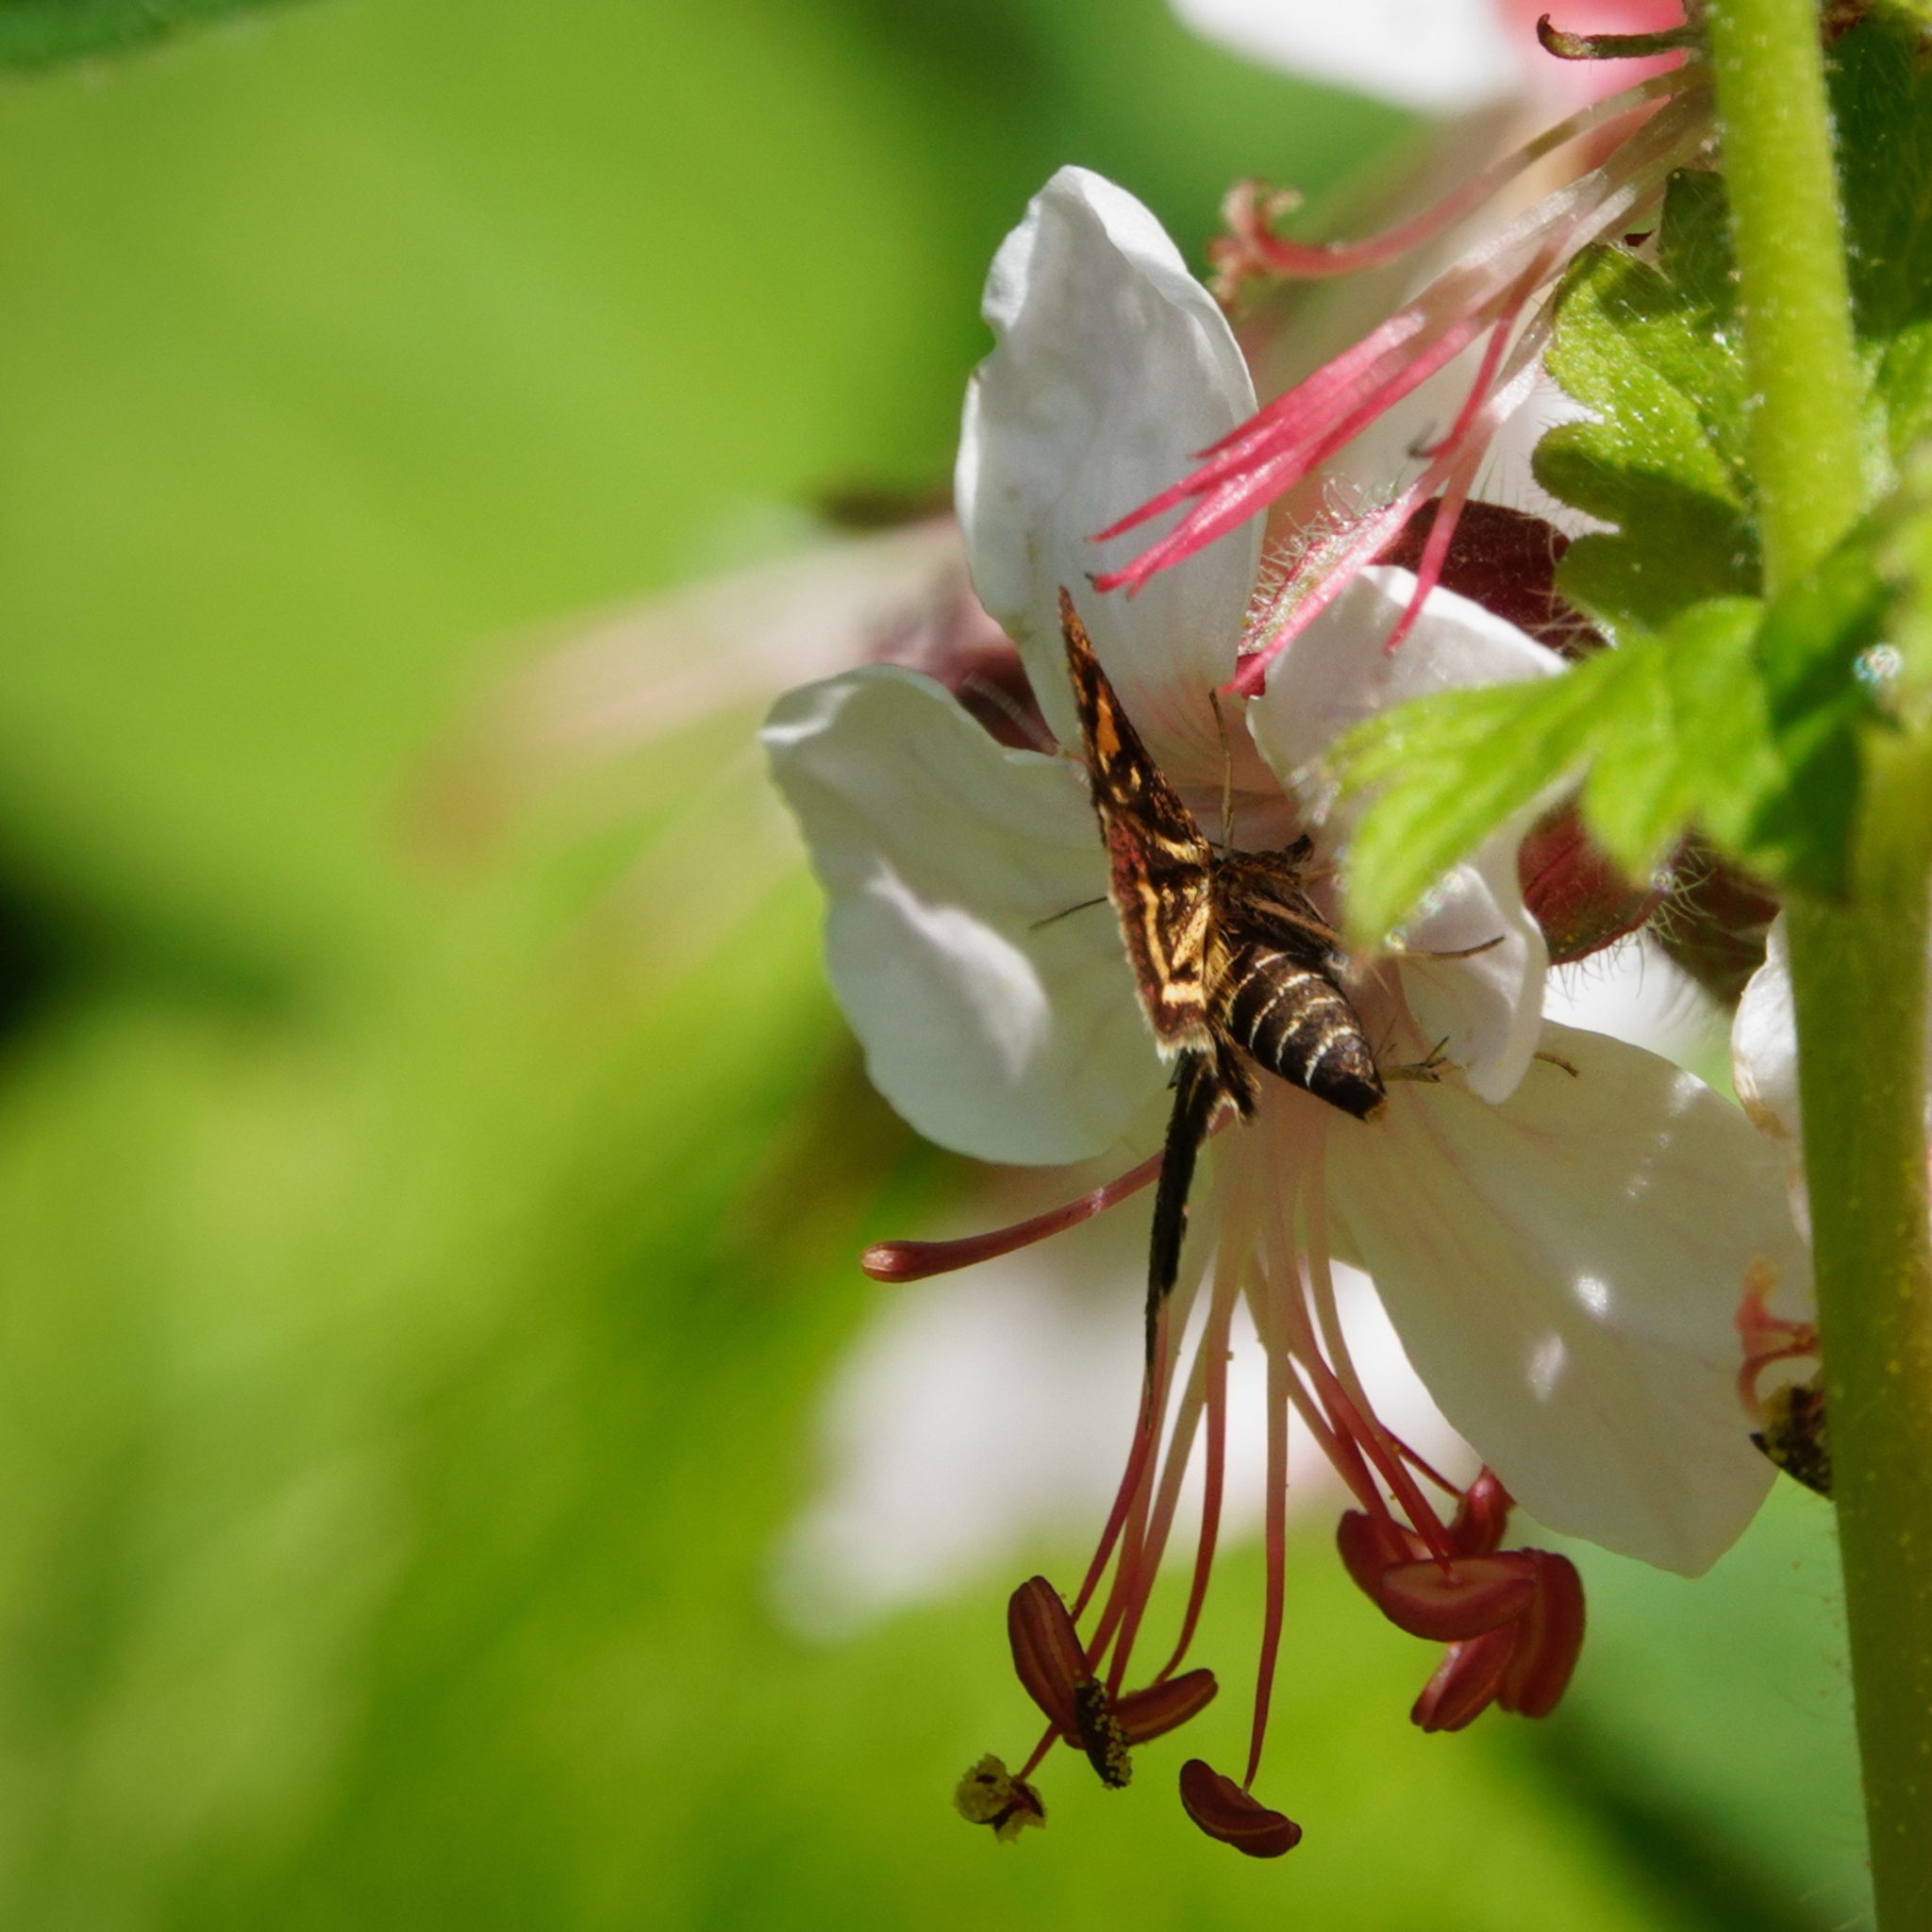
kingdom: Animalia
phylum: Arthropoda
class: Insecta
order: Lepidoptera
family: Crambidae
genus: Pyrausta
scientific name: Pyrausta aurata
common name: Small purple & gold
